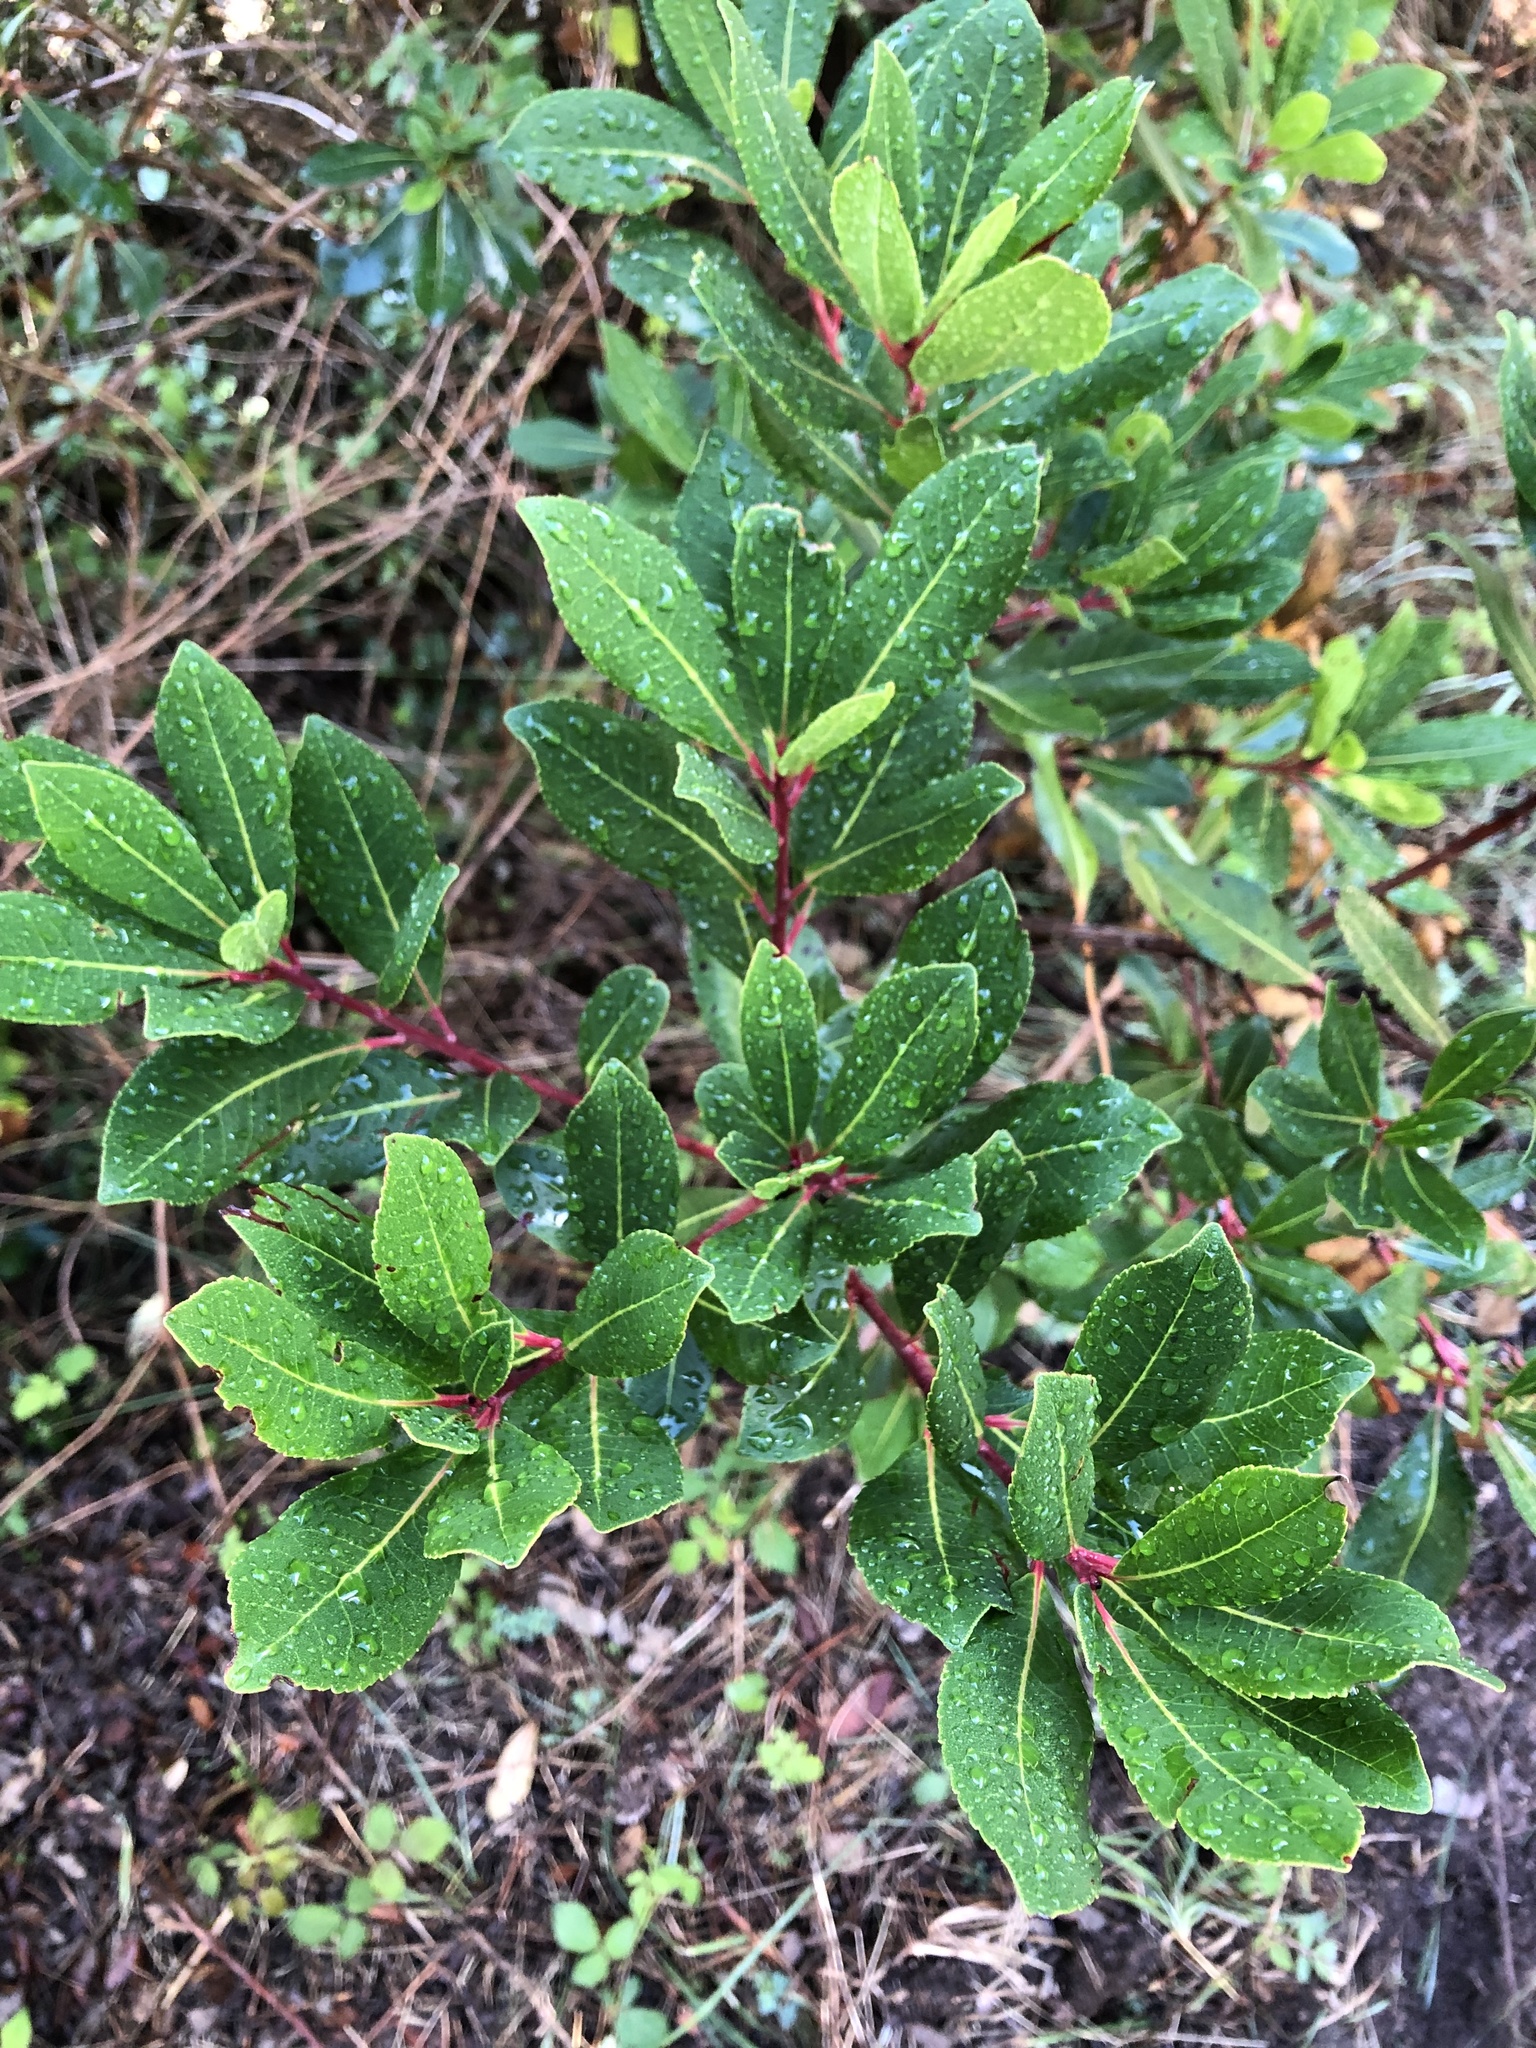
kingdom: Plantae
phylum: Tracheophyta
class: Magnoliopsida
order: Ericales
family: Ericaceae
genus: Arbutus
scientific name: Arbutus unedo
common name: Strawberry-tree
